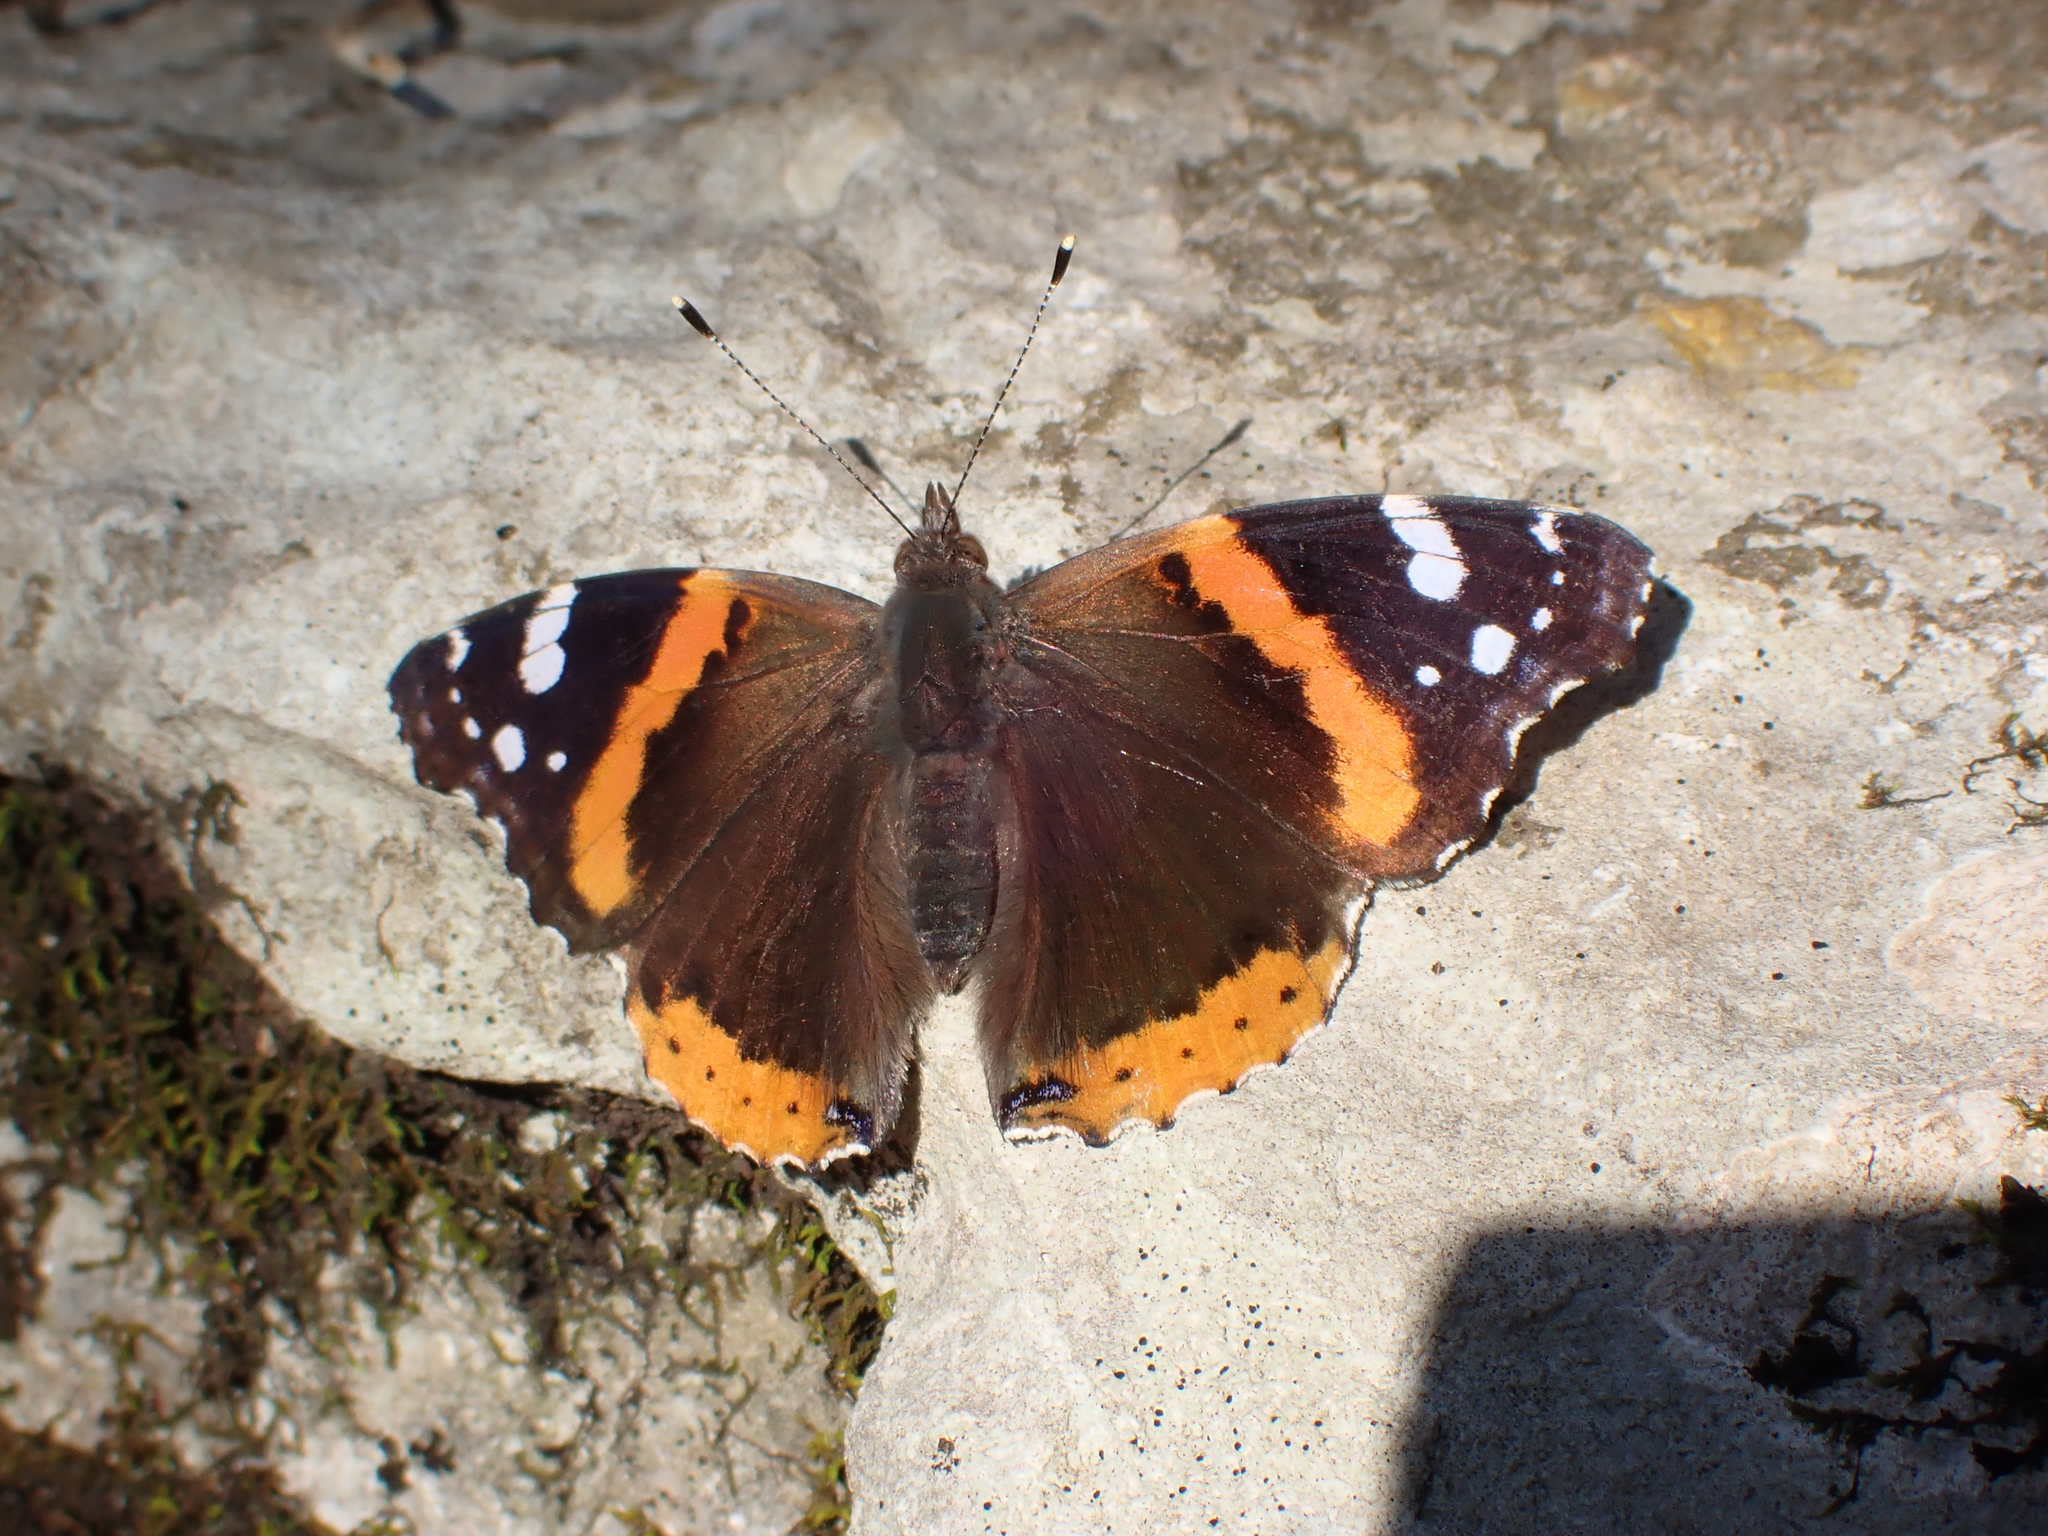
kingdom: Animalia
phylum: Arthropoda
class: Insecta
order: Lepidoptera
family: Nymphalidae
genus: Vanessa
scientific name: Vanessa atalanta
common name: Red admiral
